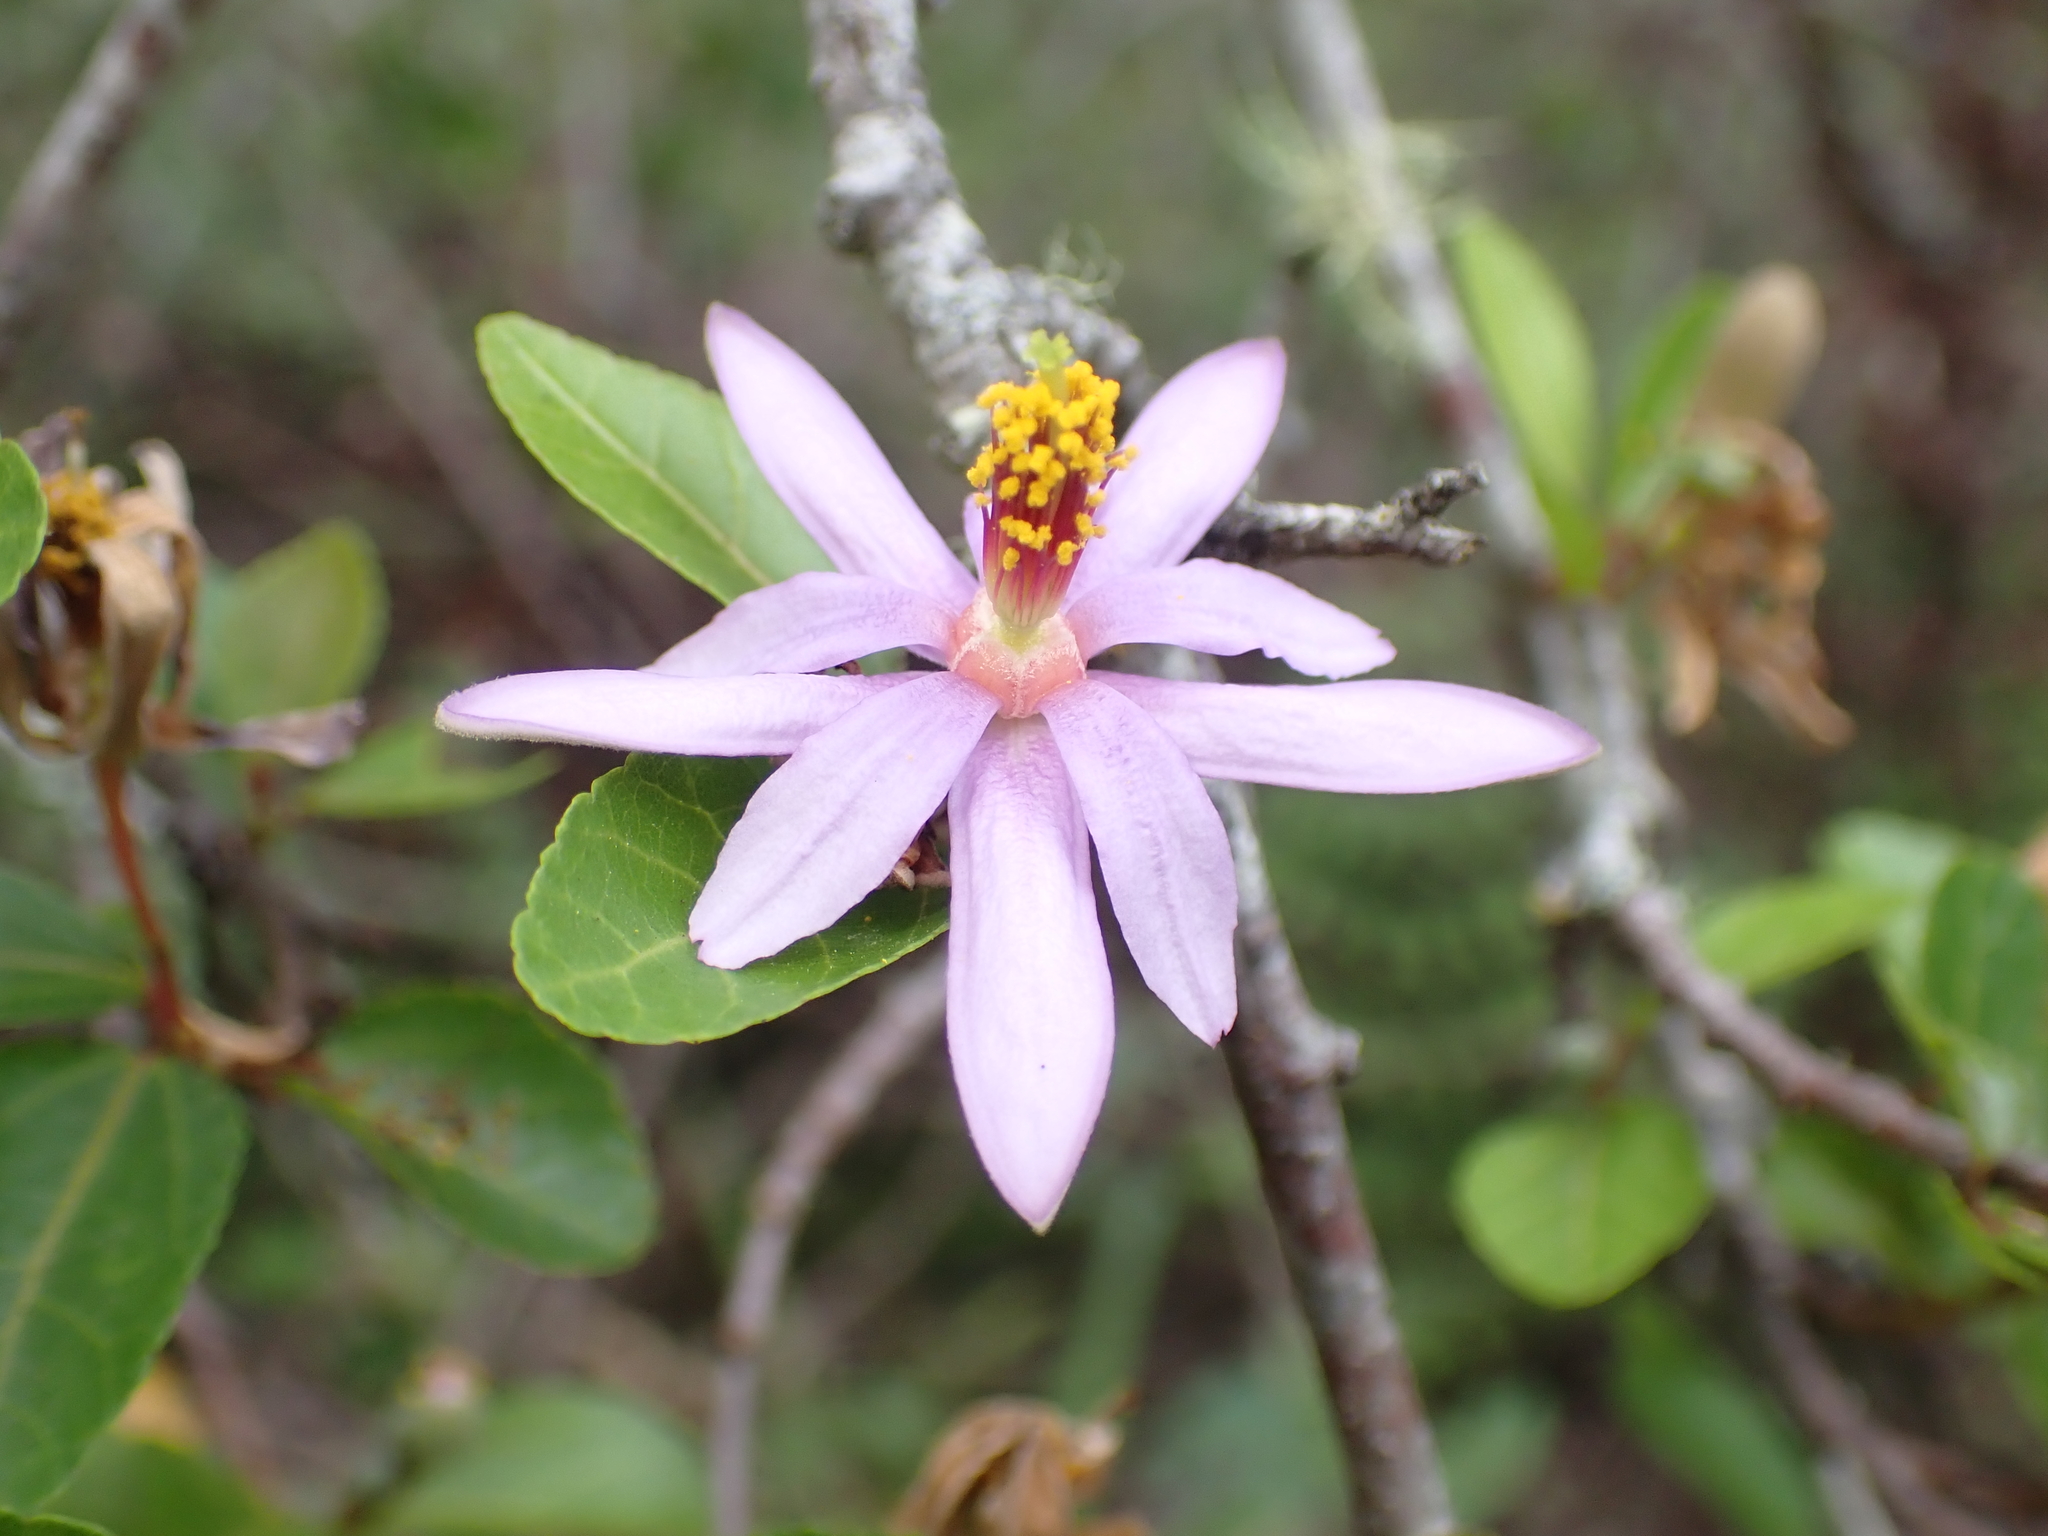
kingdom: Plantae
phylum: Tracheophyta
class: Magnoliopsida
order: Malvales
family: Malvaceae
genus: Grewia
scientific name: Grewia occidentalis
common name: Crossberry
